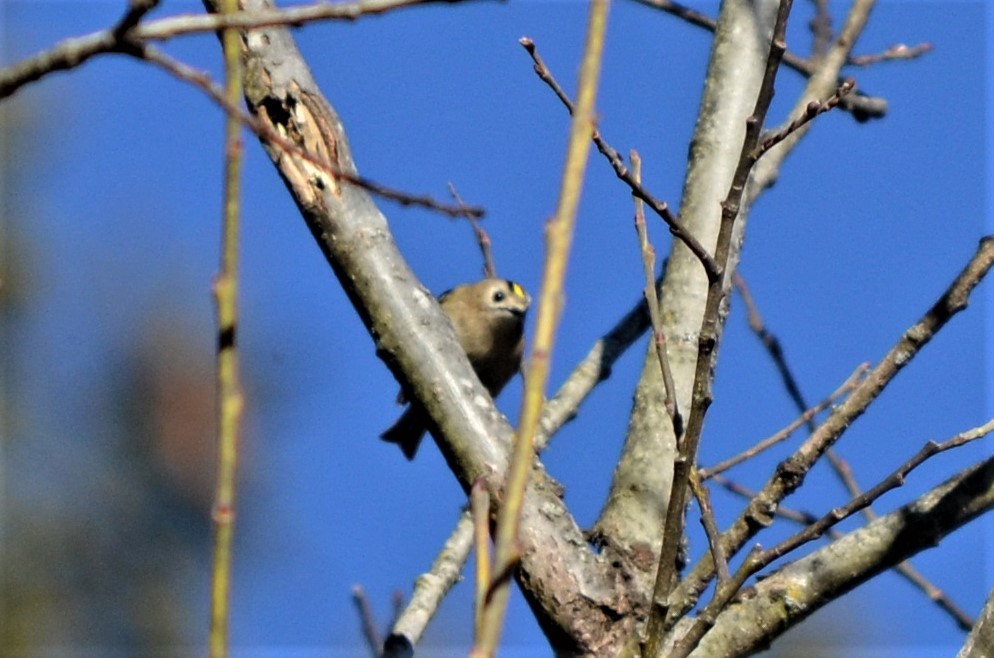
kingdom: Animalia
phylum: Chordata
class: Aves
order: Passeriformes
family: Regulidae
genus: Regulus
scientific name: Regulus regulus
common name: Goldcrest
